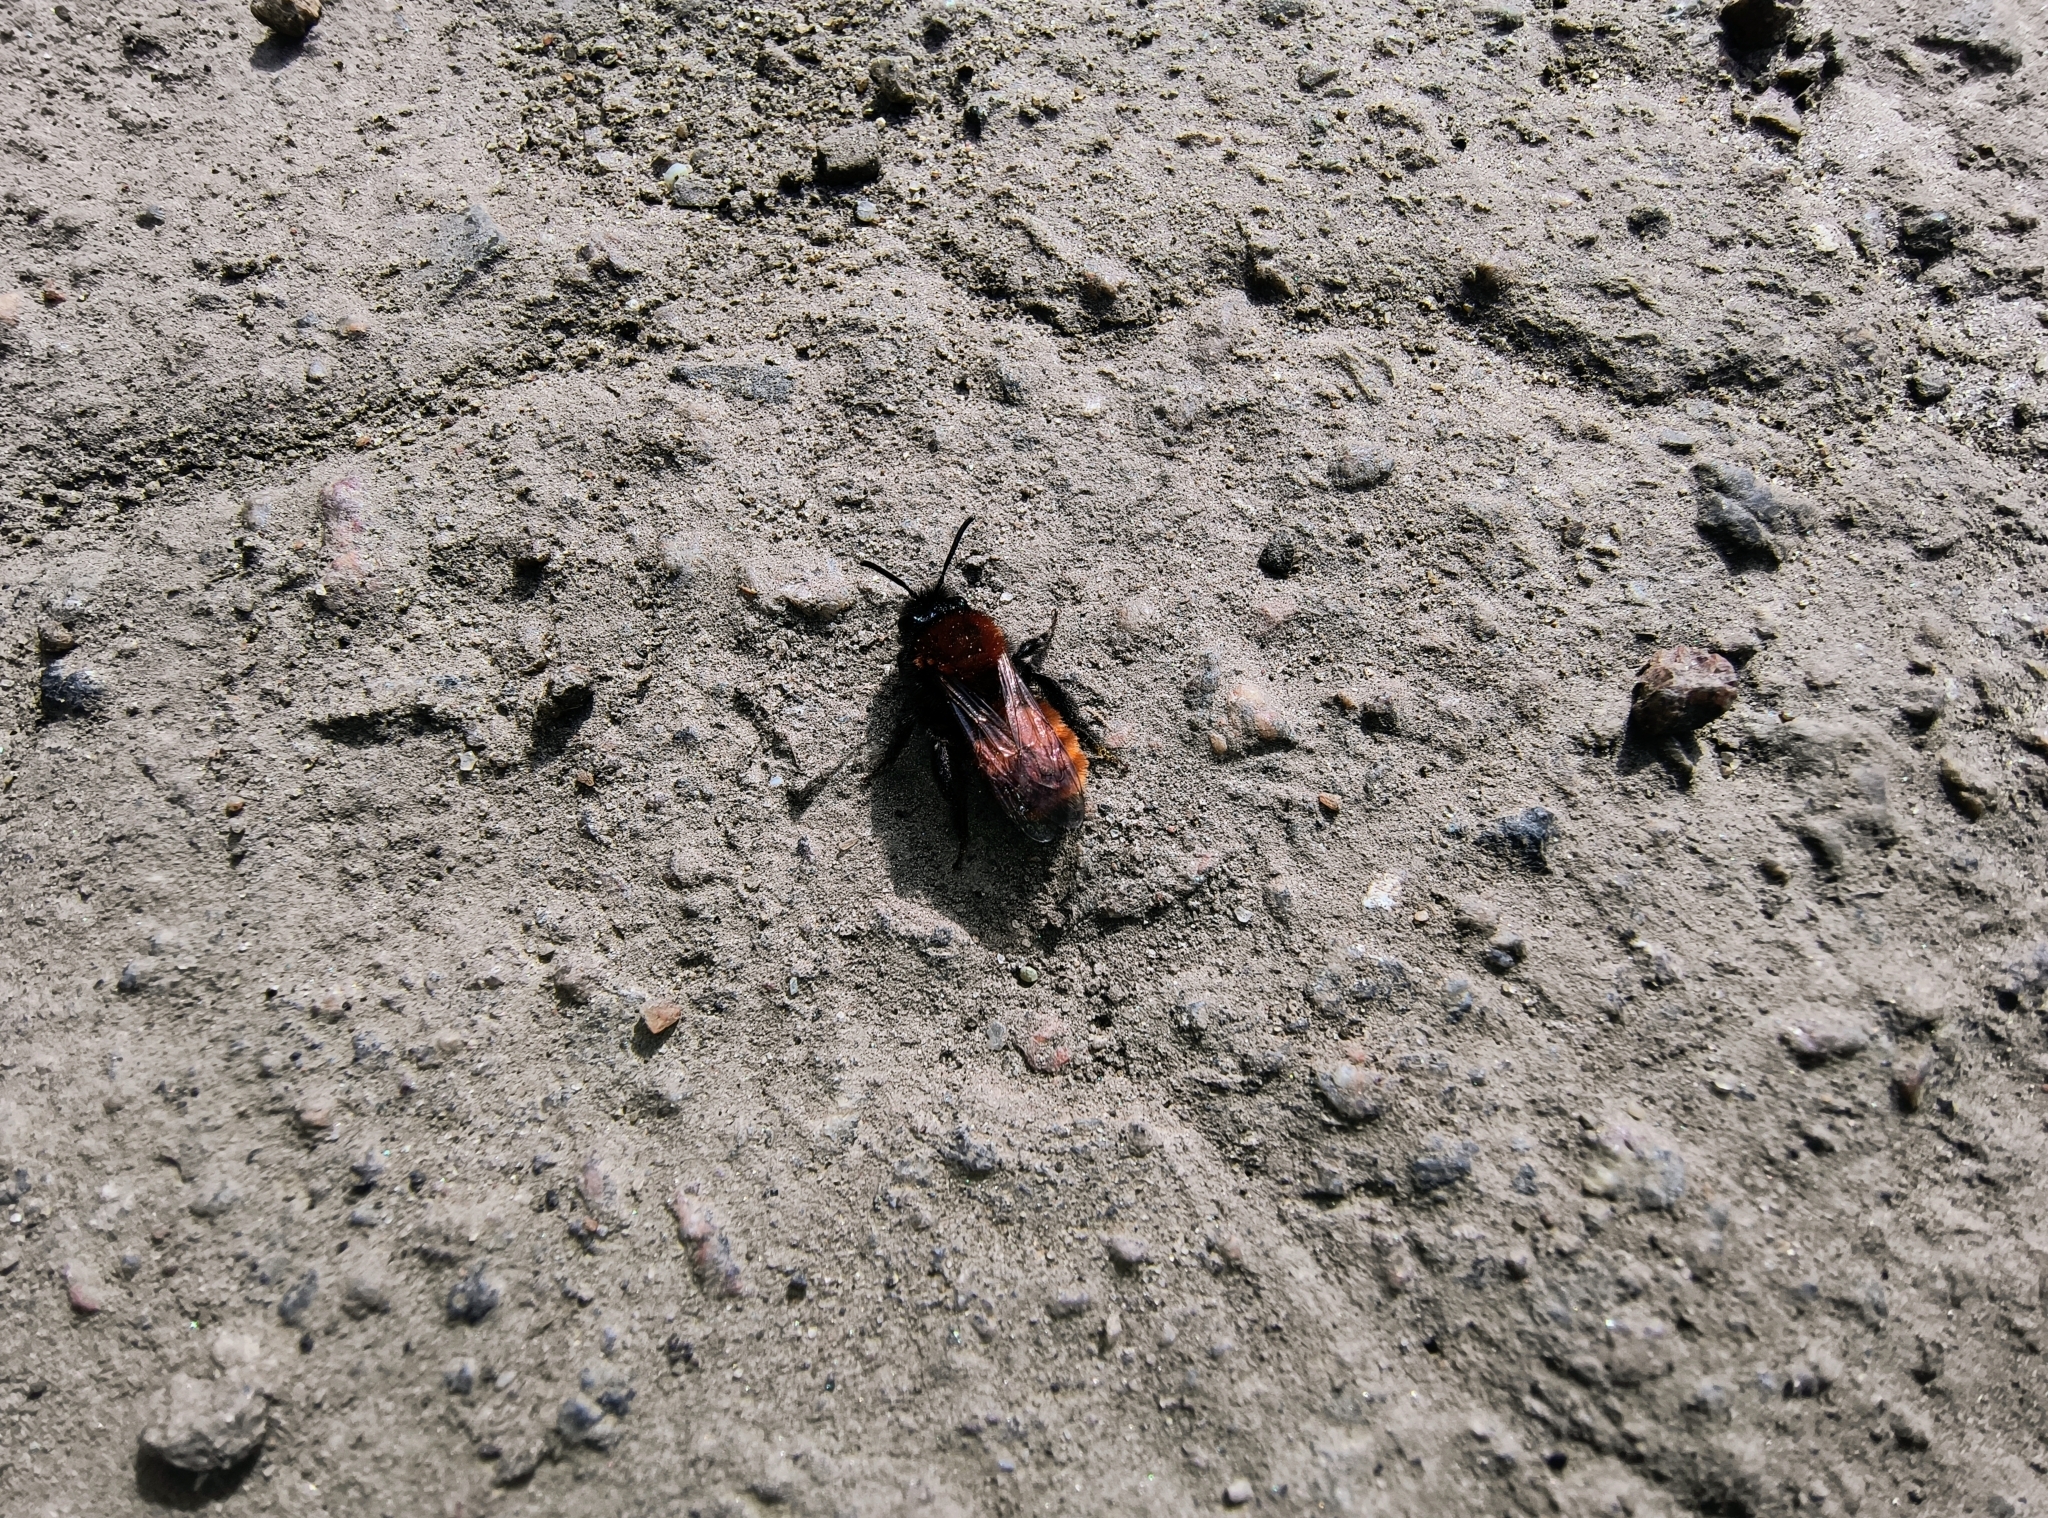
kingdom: Animalia
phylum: Arthropoda
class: Insecta
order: Hymenoptera
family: Andrenidae
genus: Andrena
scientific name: Andrena fulva
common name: Tawny mining bee
